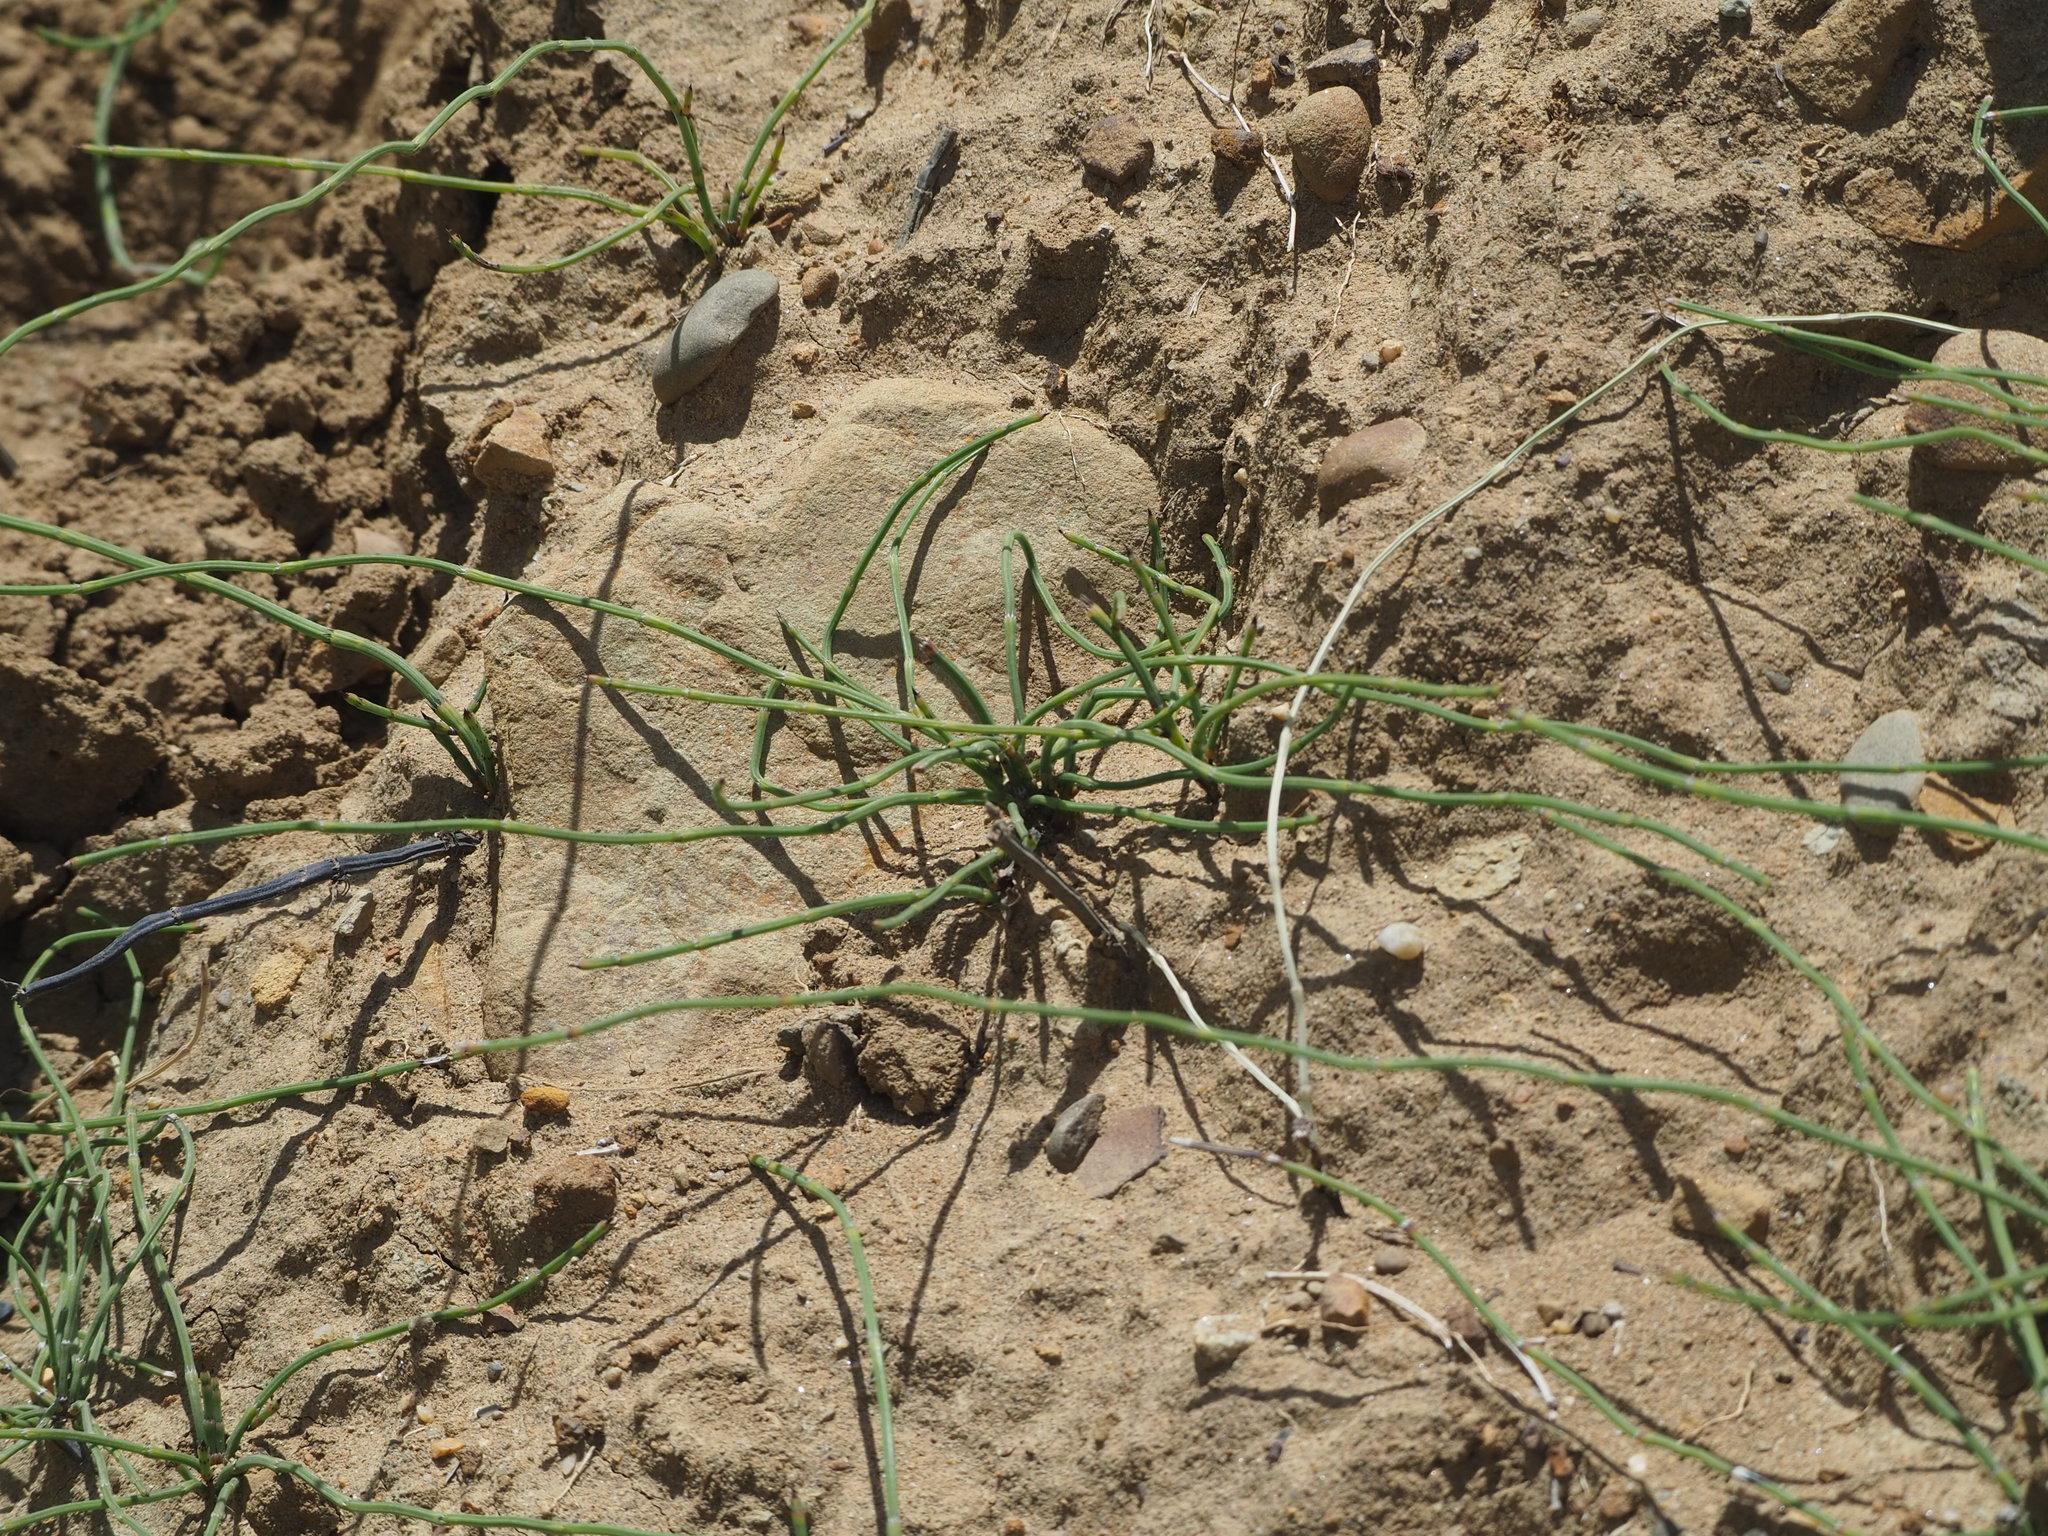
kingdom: Plantae
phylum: Tracheophyta
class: Polypodiopsida
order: Equisetales
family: Equisetaceae
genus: Equisetum
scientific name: Equisetum ramosissimum
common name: Branched horsetail
